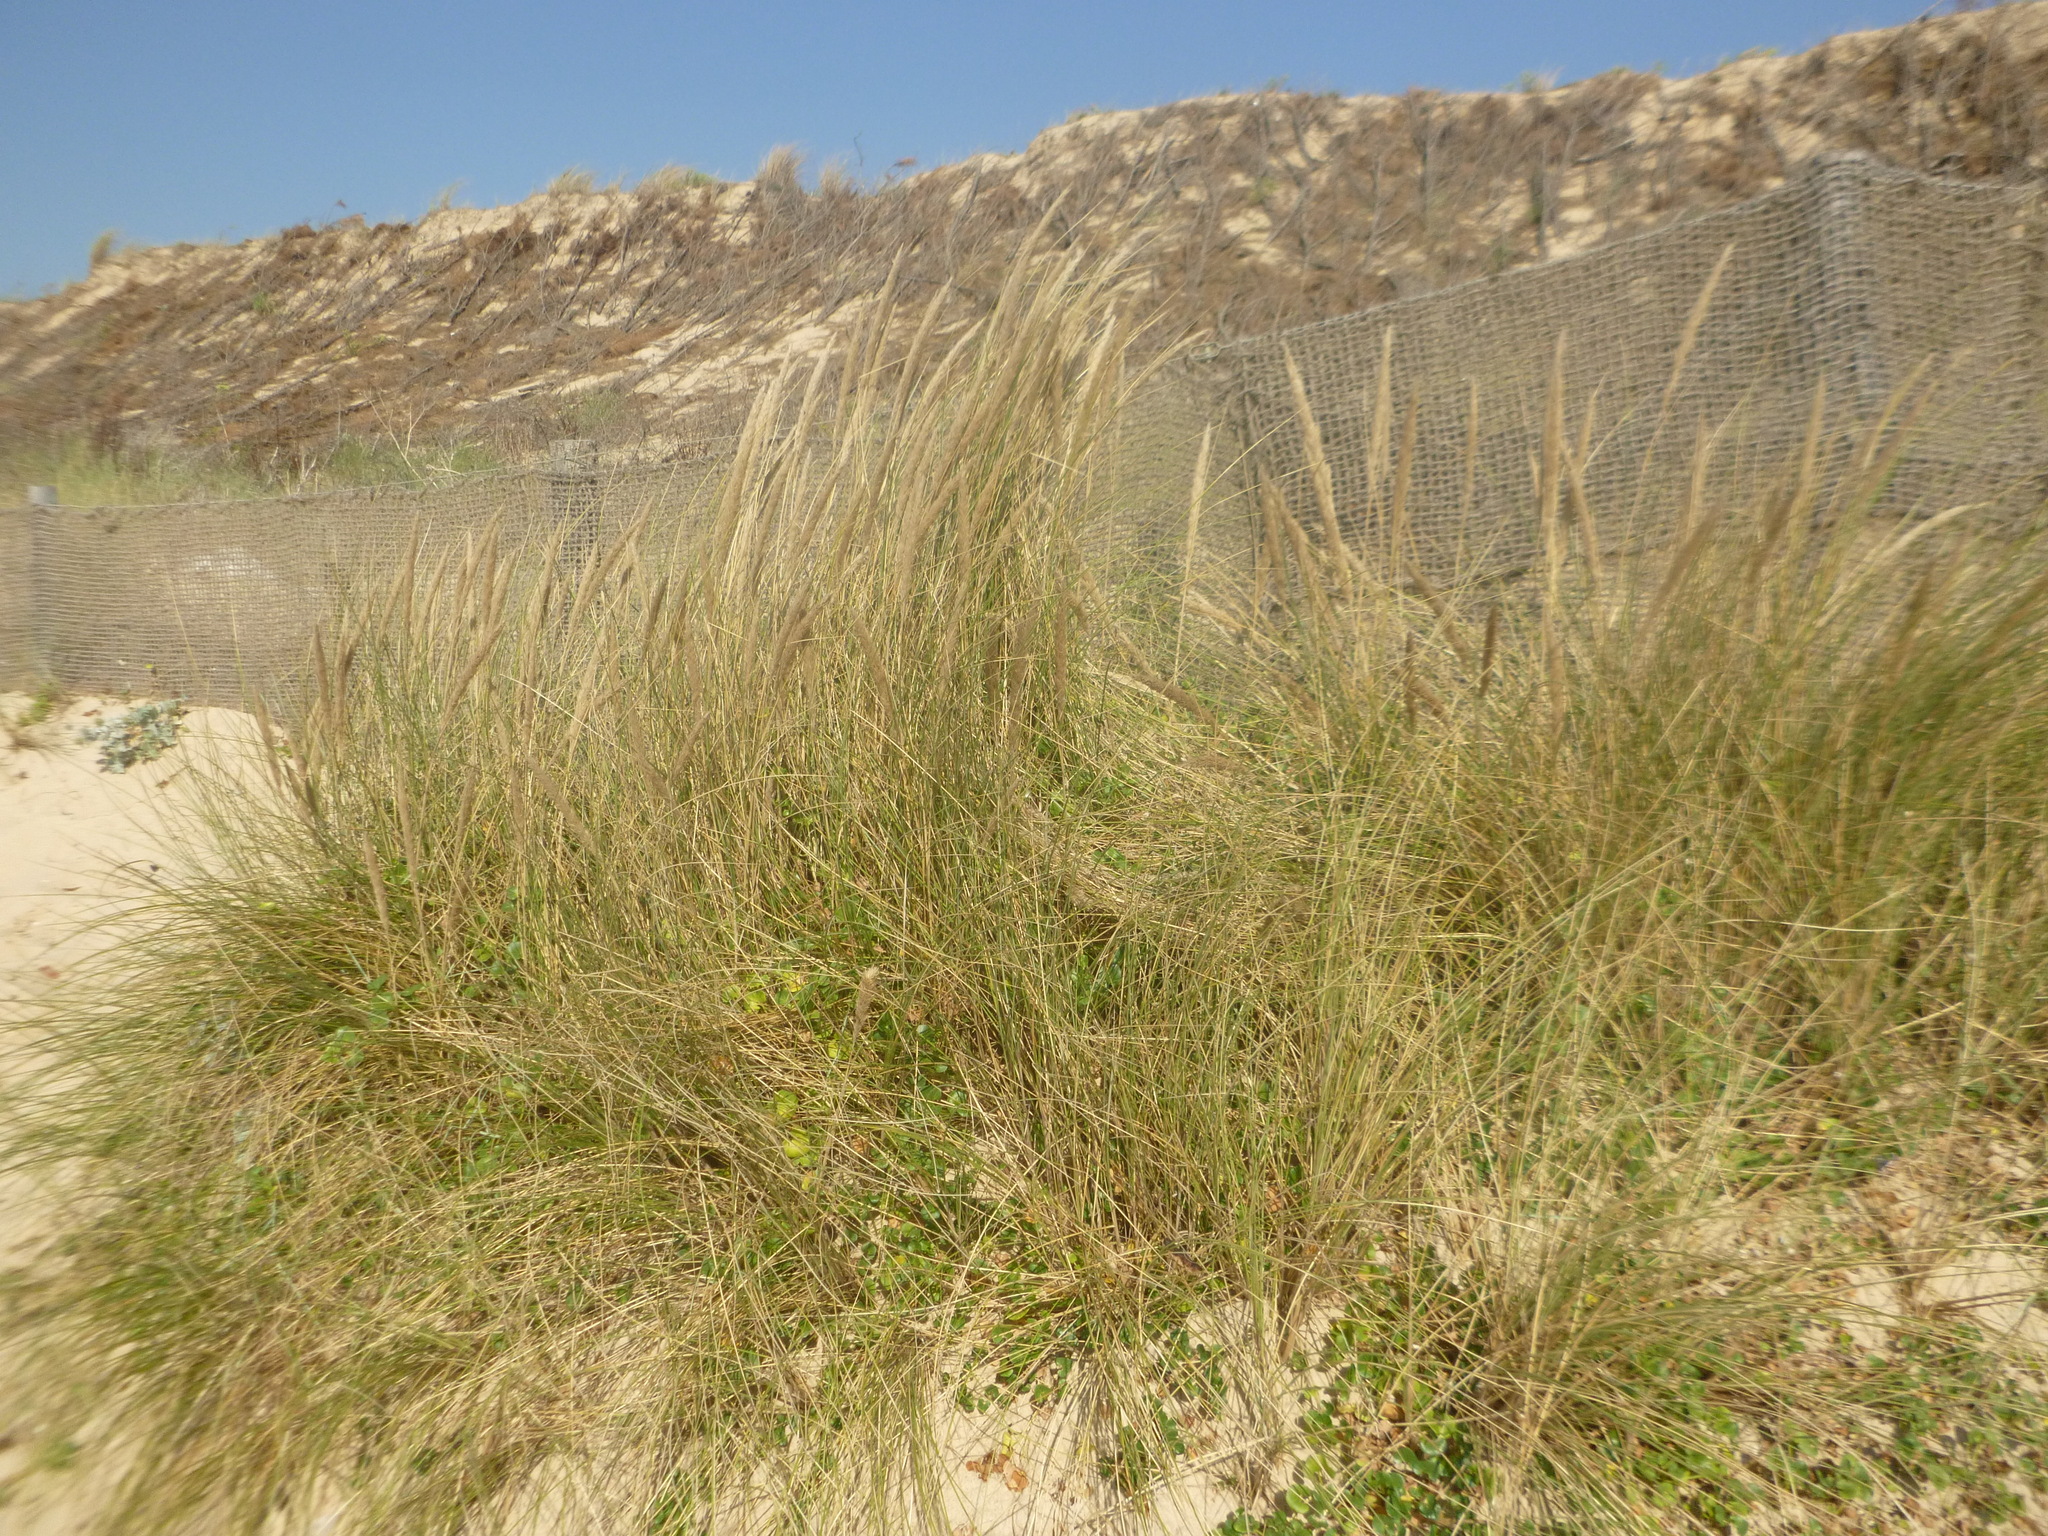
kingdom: Plantae
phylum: Tracheophyta
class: Liliopsida
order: Poales
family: Poaceae
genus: Calamagrostis
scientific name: Calamagrostis arenaria
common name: European beachgrass
